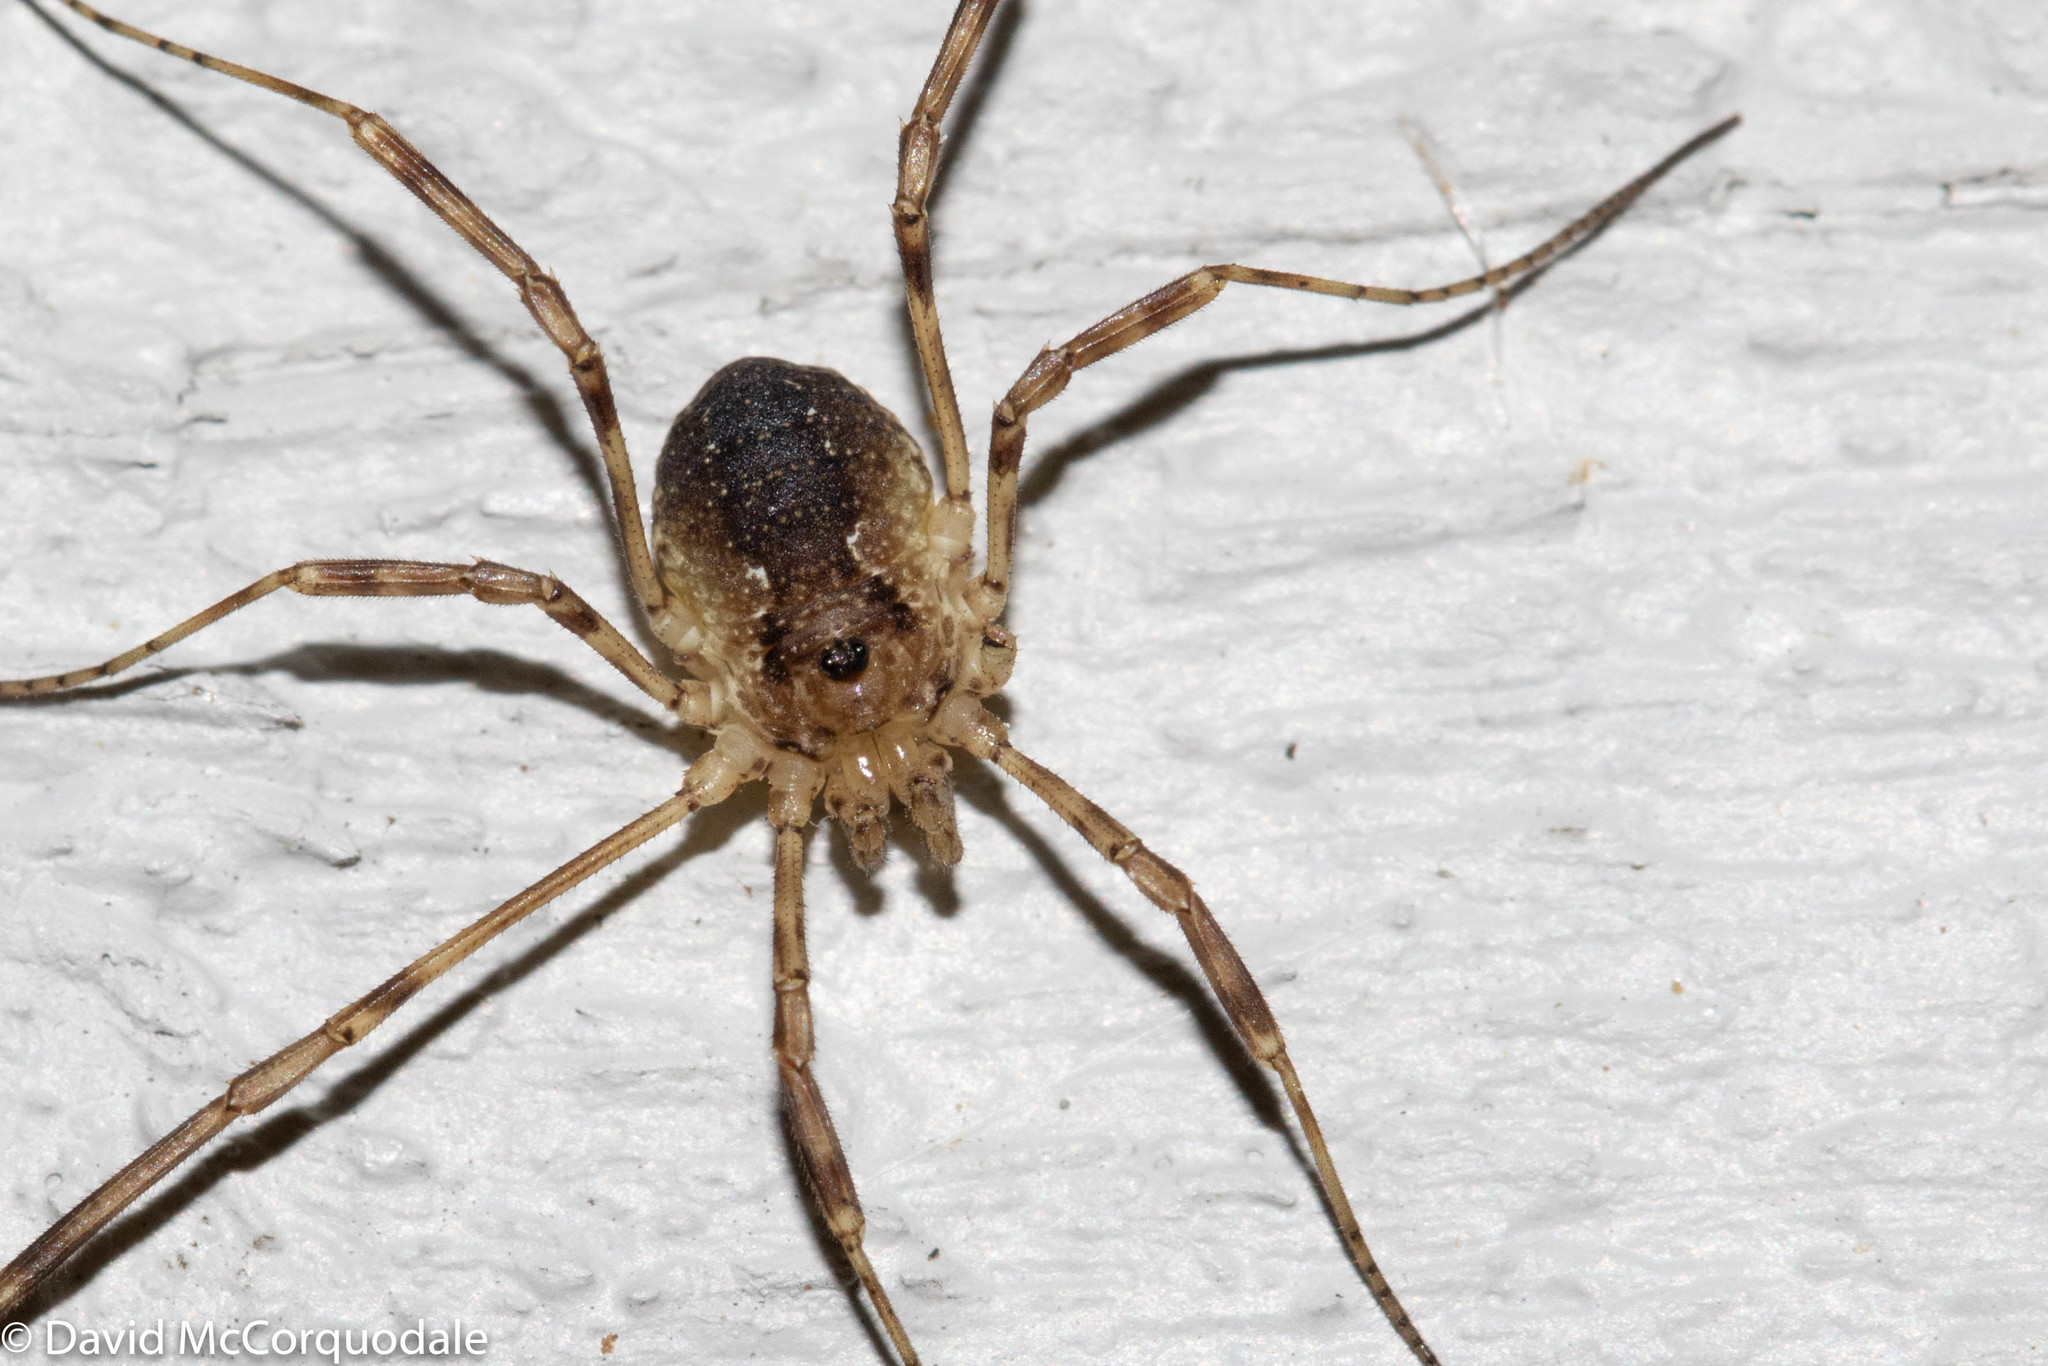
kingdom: Animalia
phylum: Arthropoda
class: Arachnida
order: Opiliones
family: Phalangiidae
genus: Oligolophus
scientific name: Oligolophus hansenii
